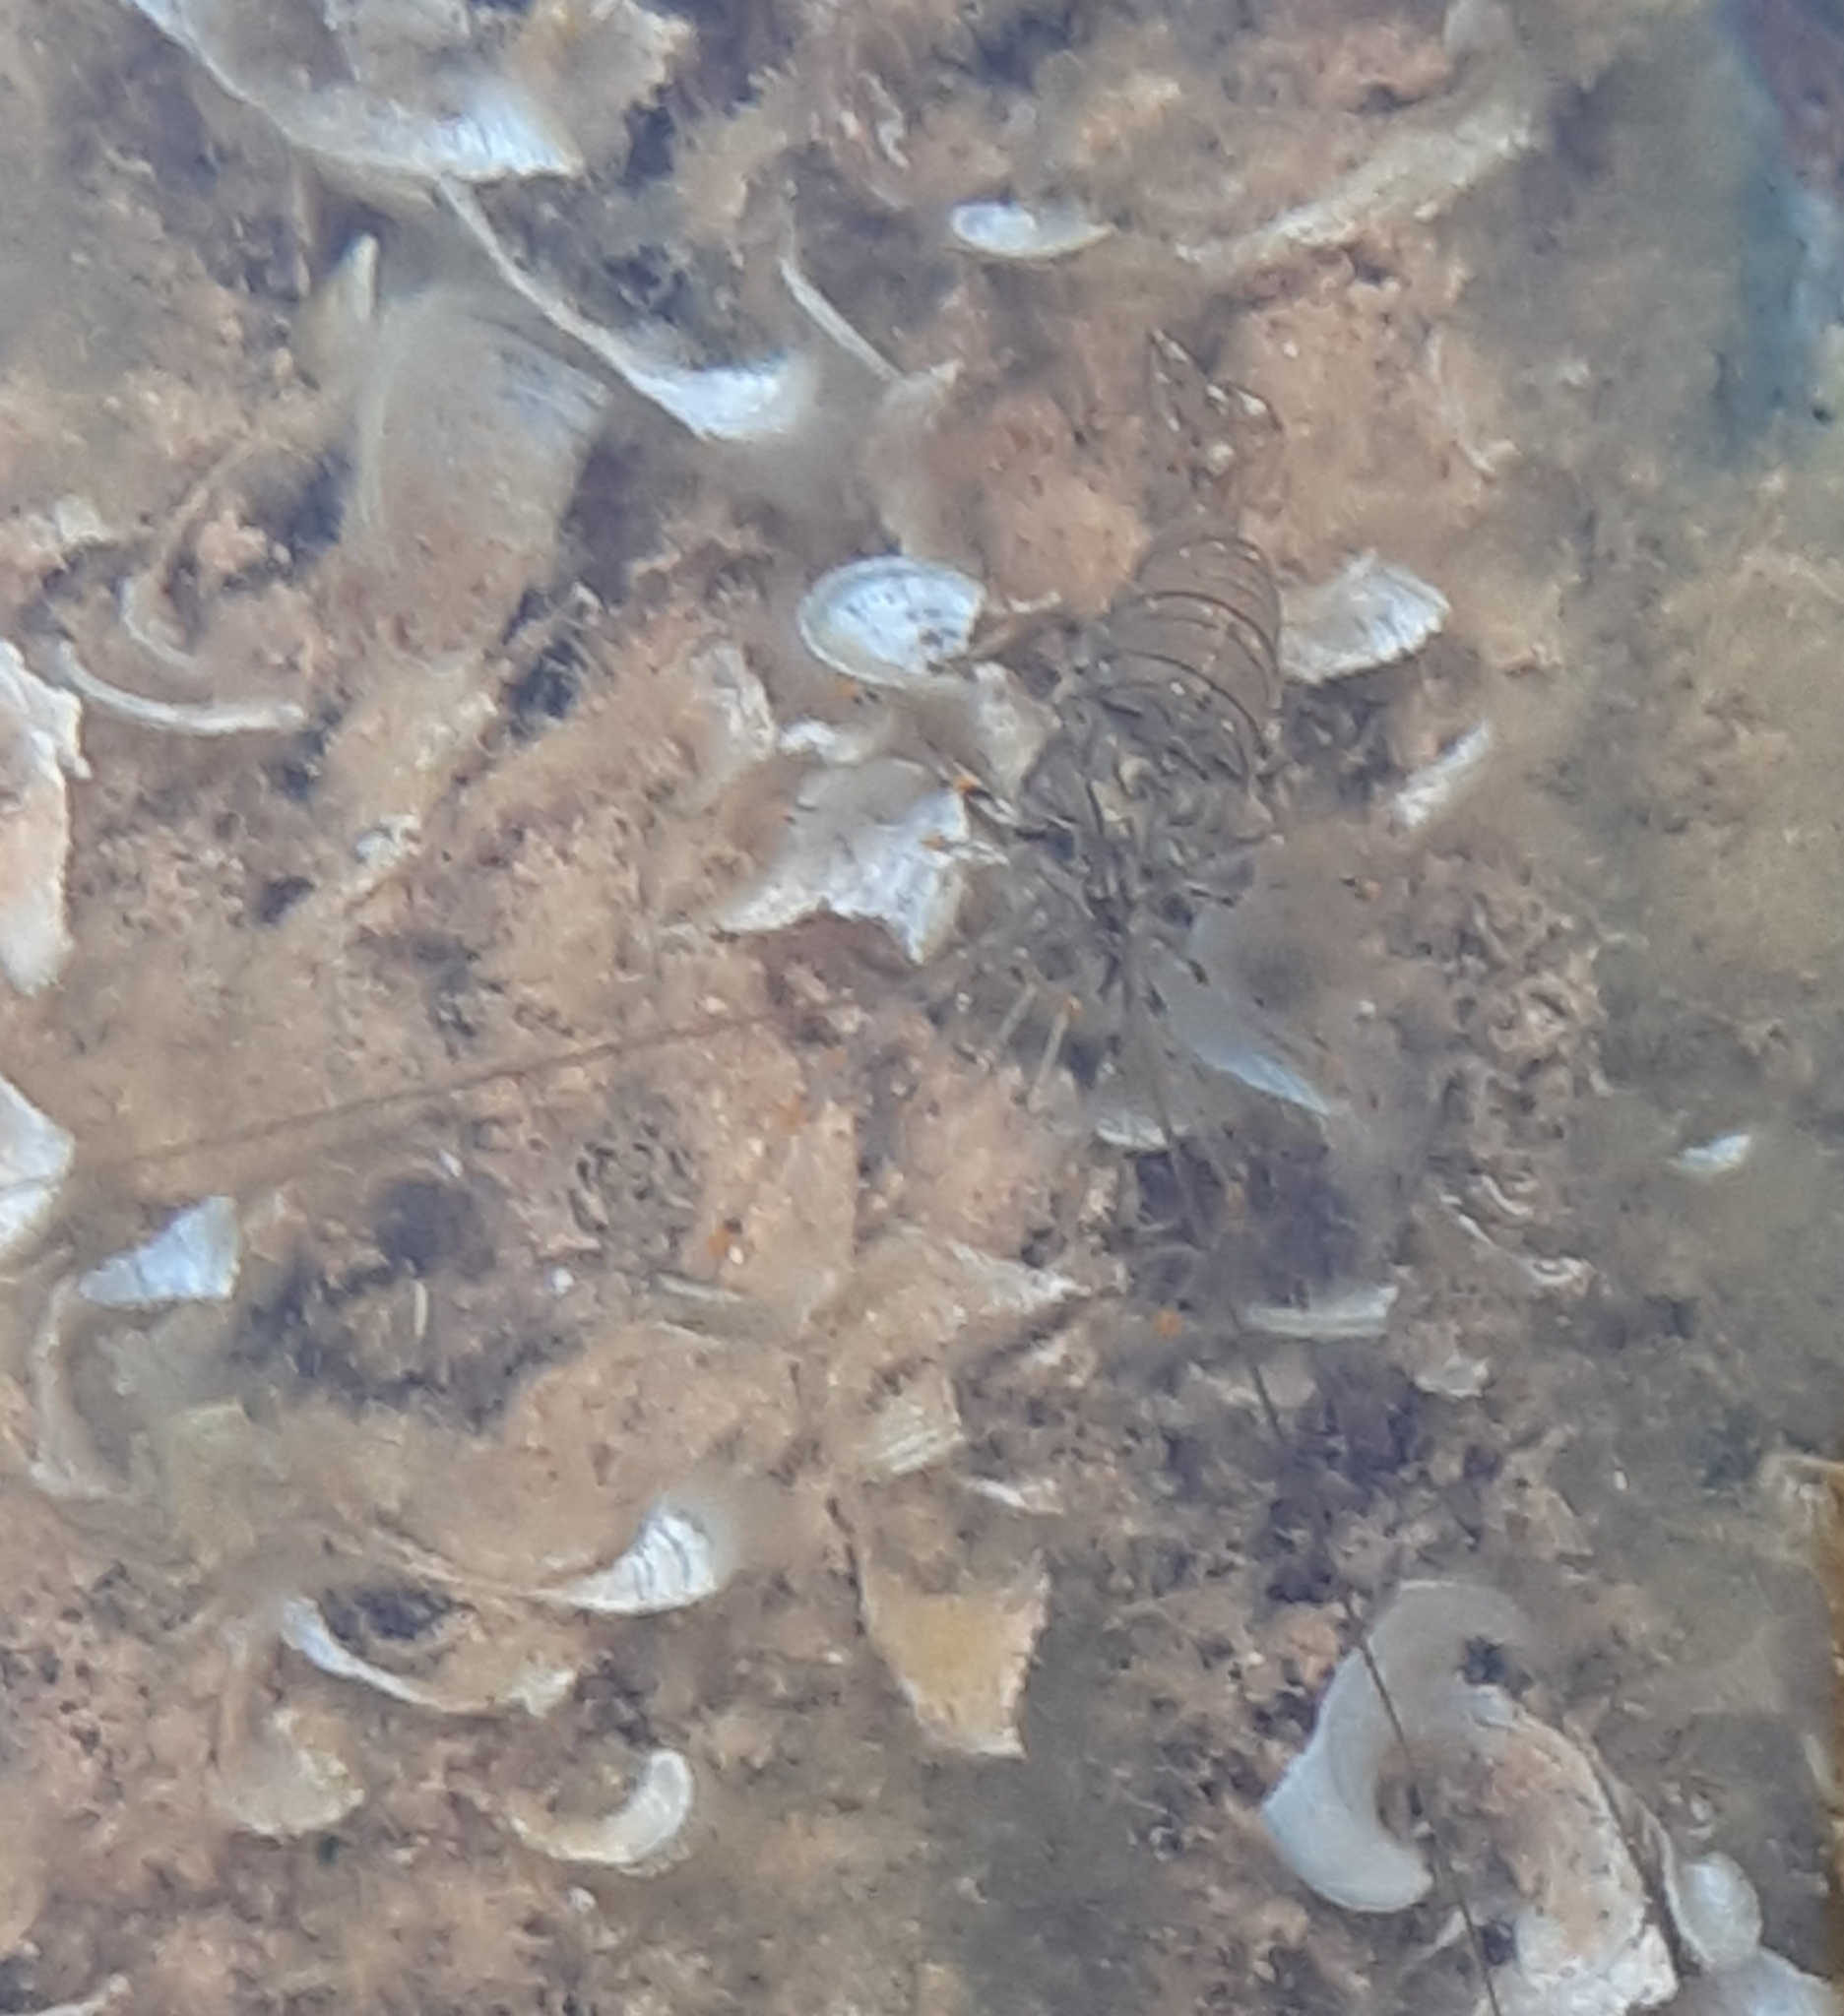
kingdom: Animalia
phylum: Arthropoda
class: Malacostraca
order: Decapoda
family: Palaemonidae
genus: Palaemon
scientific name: Palaemon elegans
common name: Grass prawm
